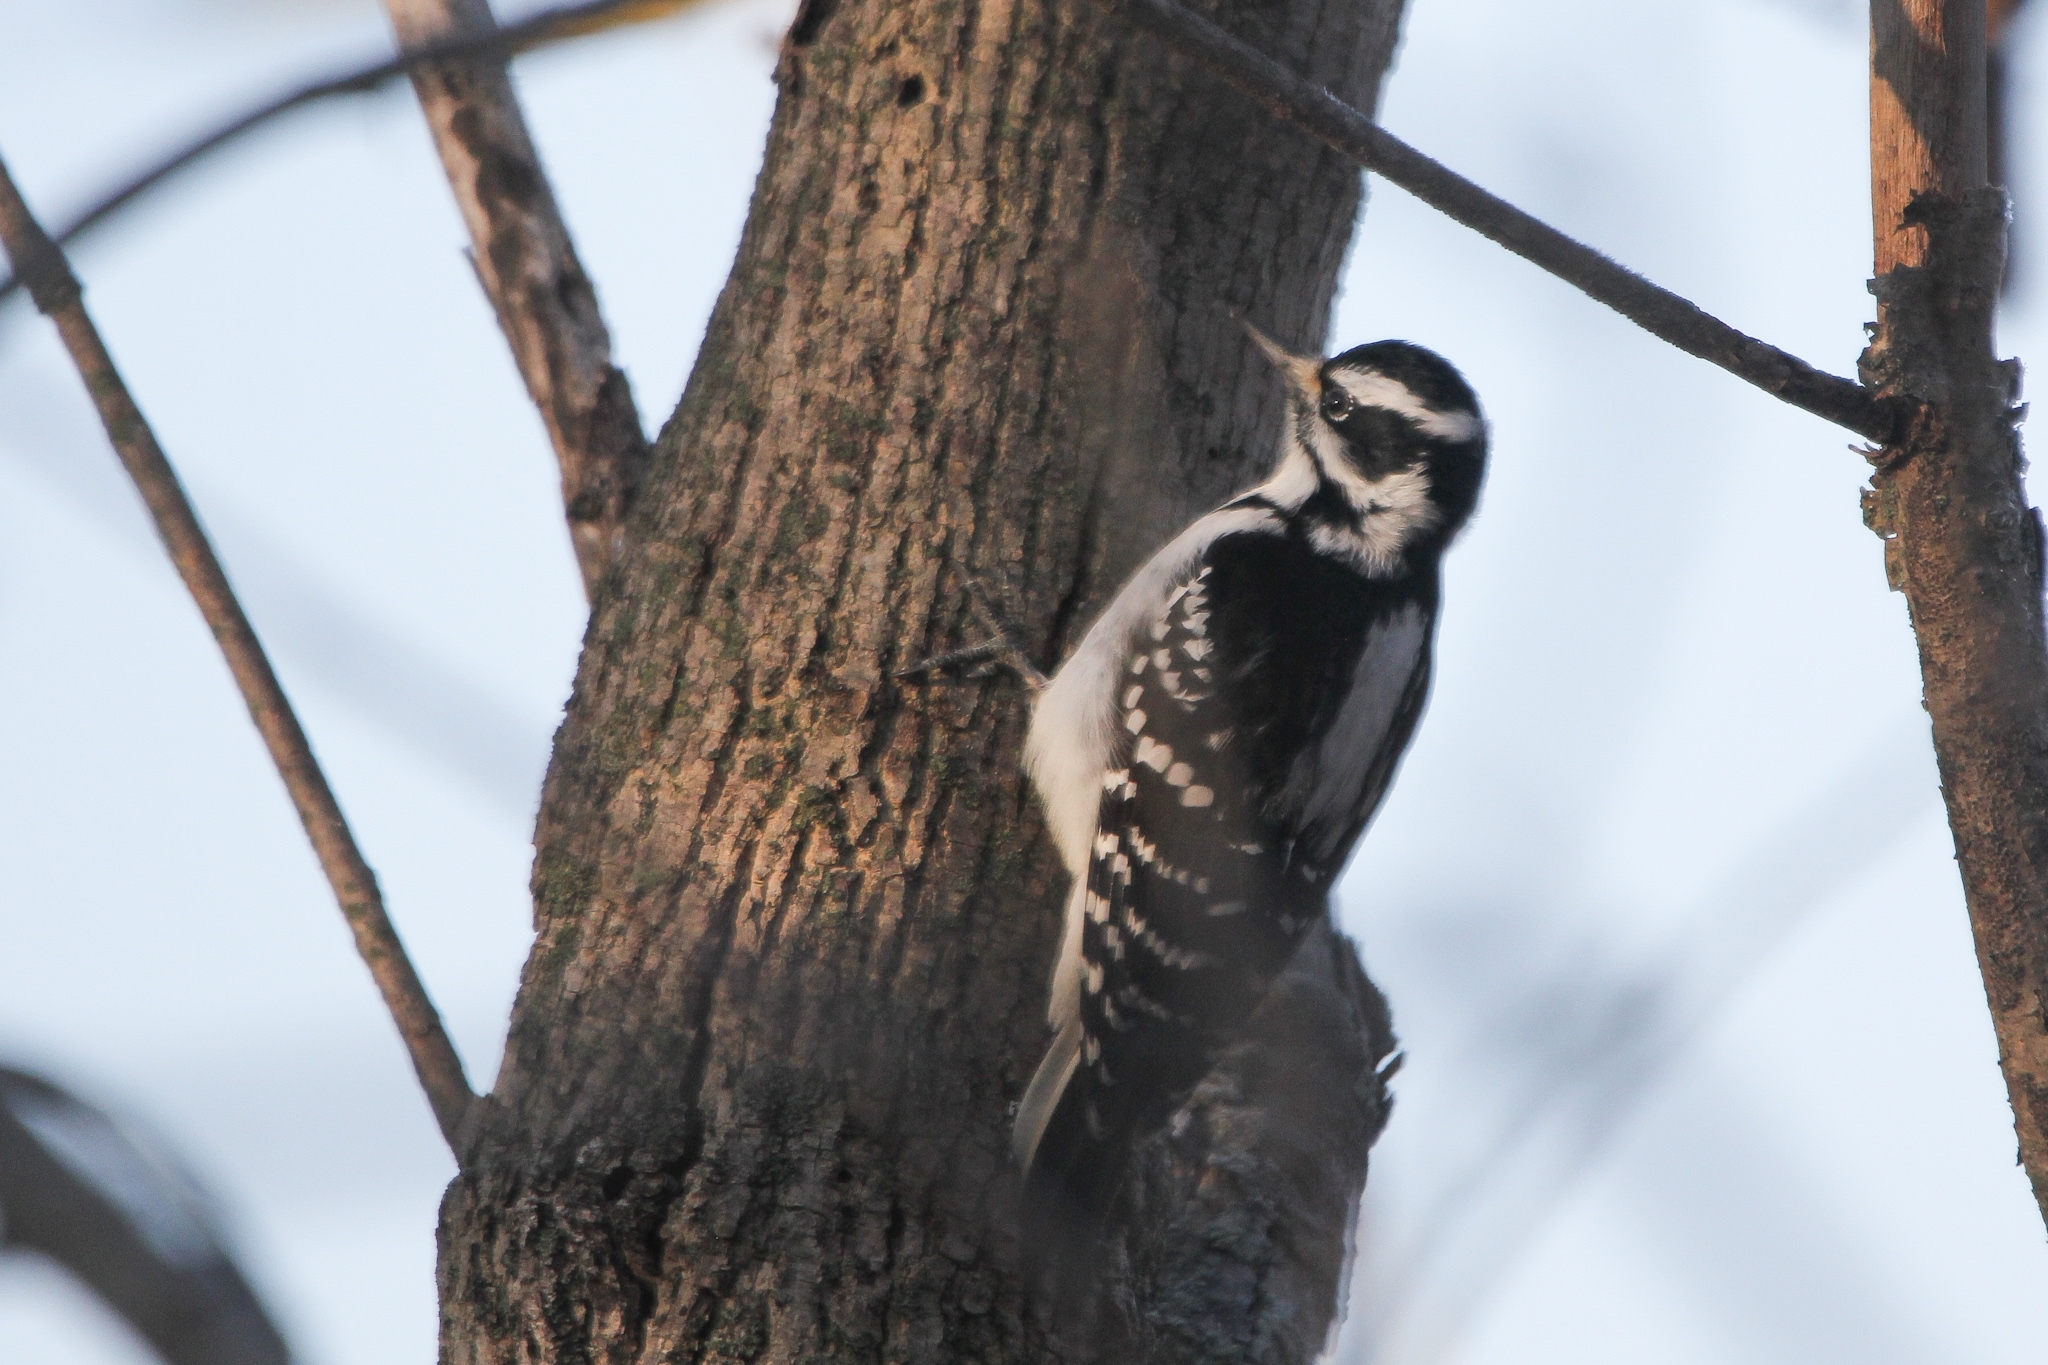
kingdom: Animalia
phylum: Chordata
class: Aves
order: Piciformes
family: Picidae
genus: Leuconotopicus
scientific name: Leuconotopicus villosus
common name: Hairy woodpecker
